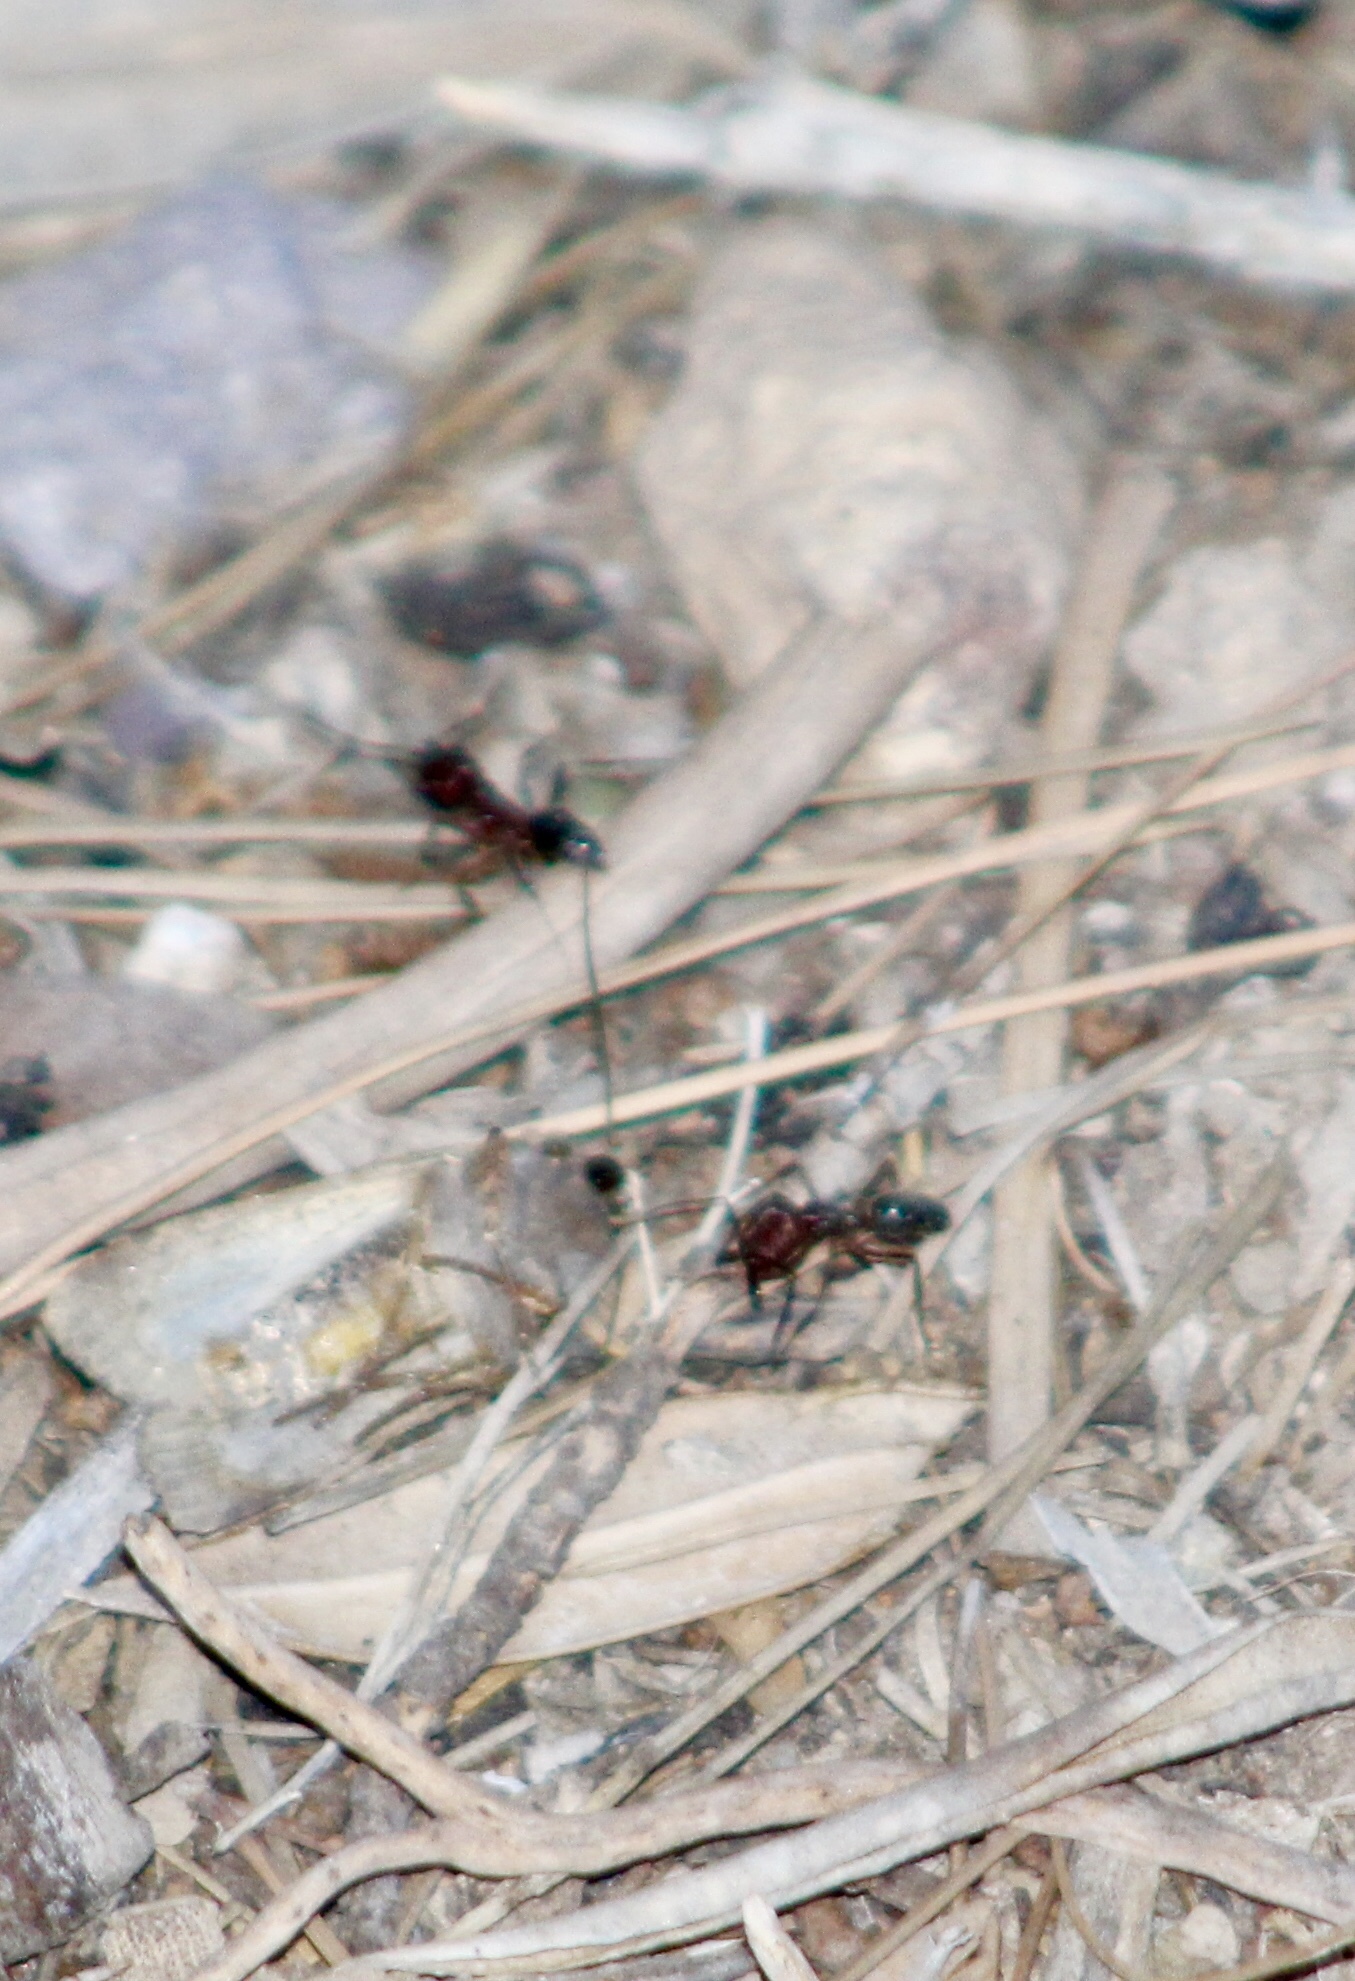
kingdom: Animalia
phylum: Arthropoda
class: Insecta
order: Hymenoptera
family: Formicidae
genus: Odontomachus
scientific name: Odontomachus
